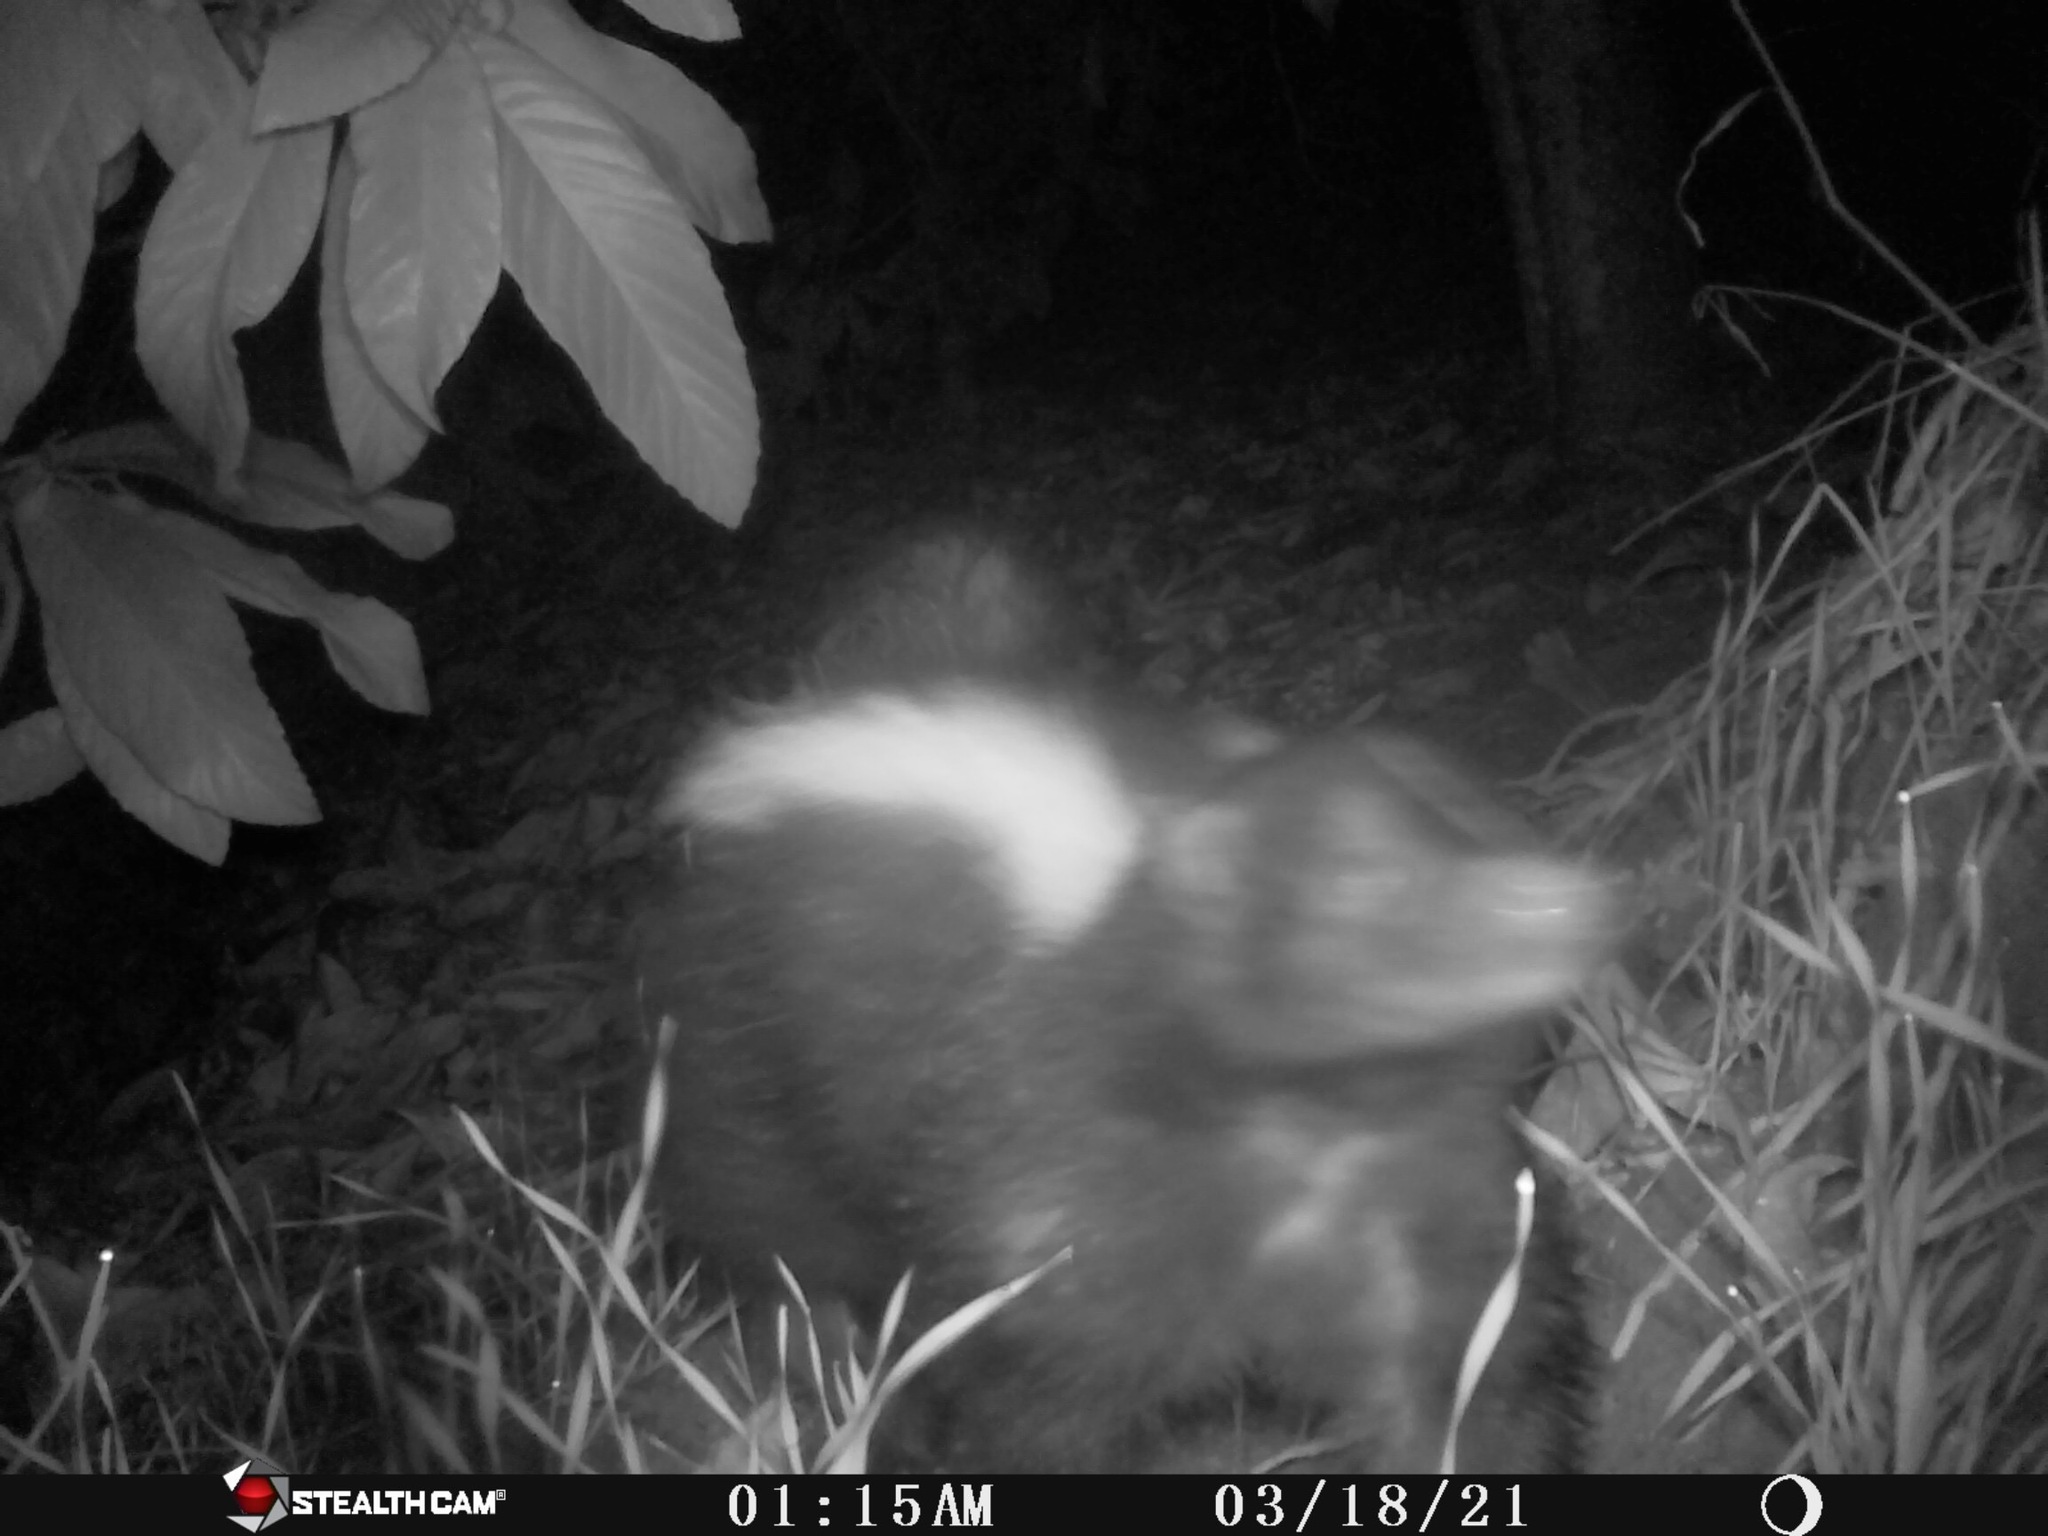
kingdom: Animalia
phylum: Chordata
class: Mammalia
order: Carnivora
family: Mephitidae
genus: Mephitis
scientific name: Mephitis mephitis
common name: Striped skunk
